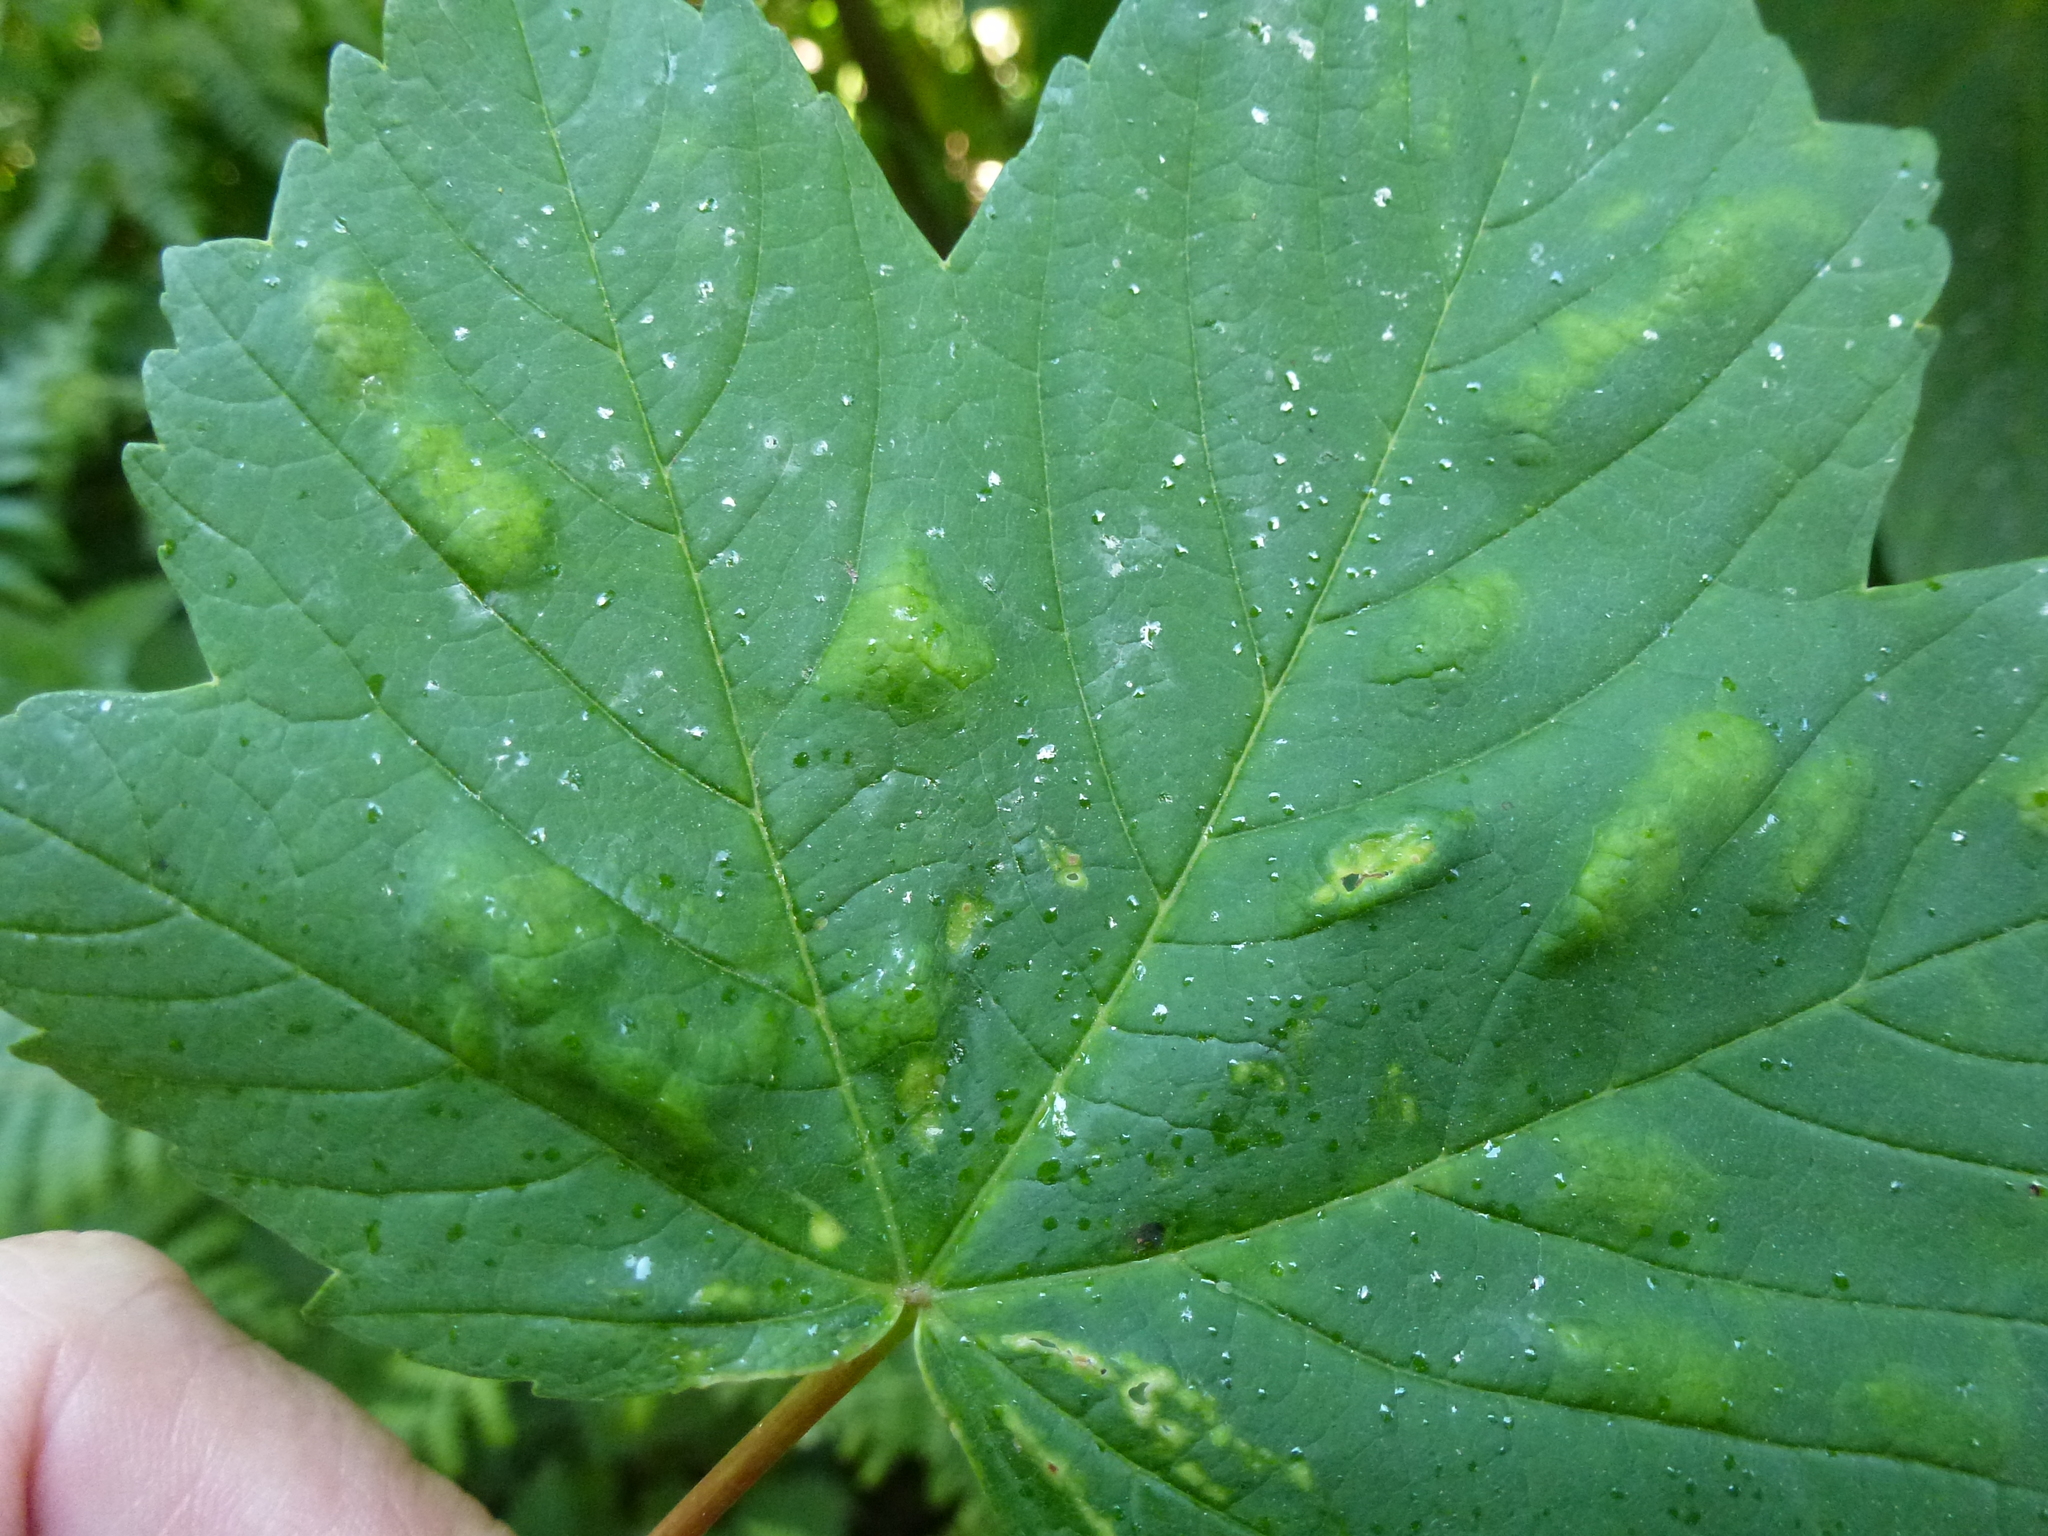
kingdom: Animalia
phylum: Arthropoda
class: Arachnida
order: Trombidiformes
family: Eriophyidae
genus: Aceria
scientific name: Aceria pseudoplatani
